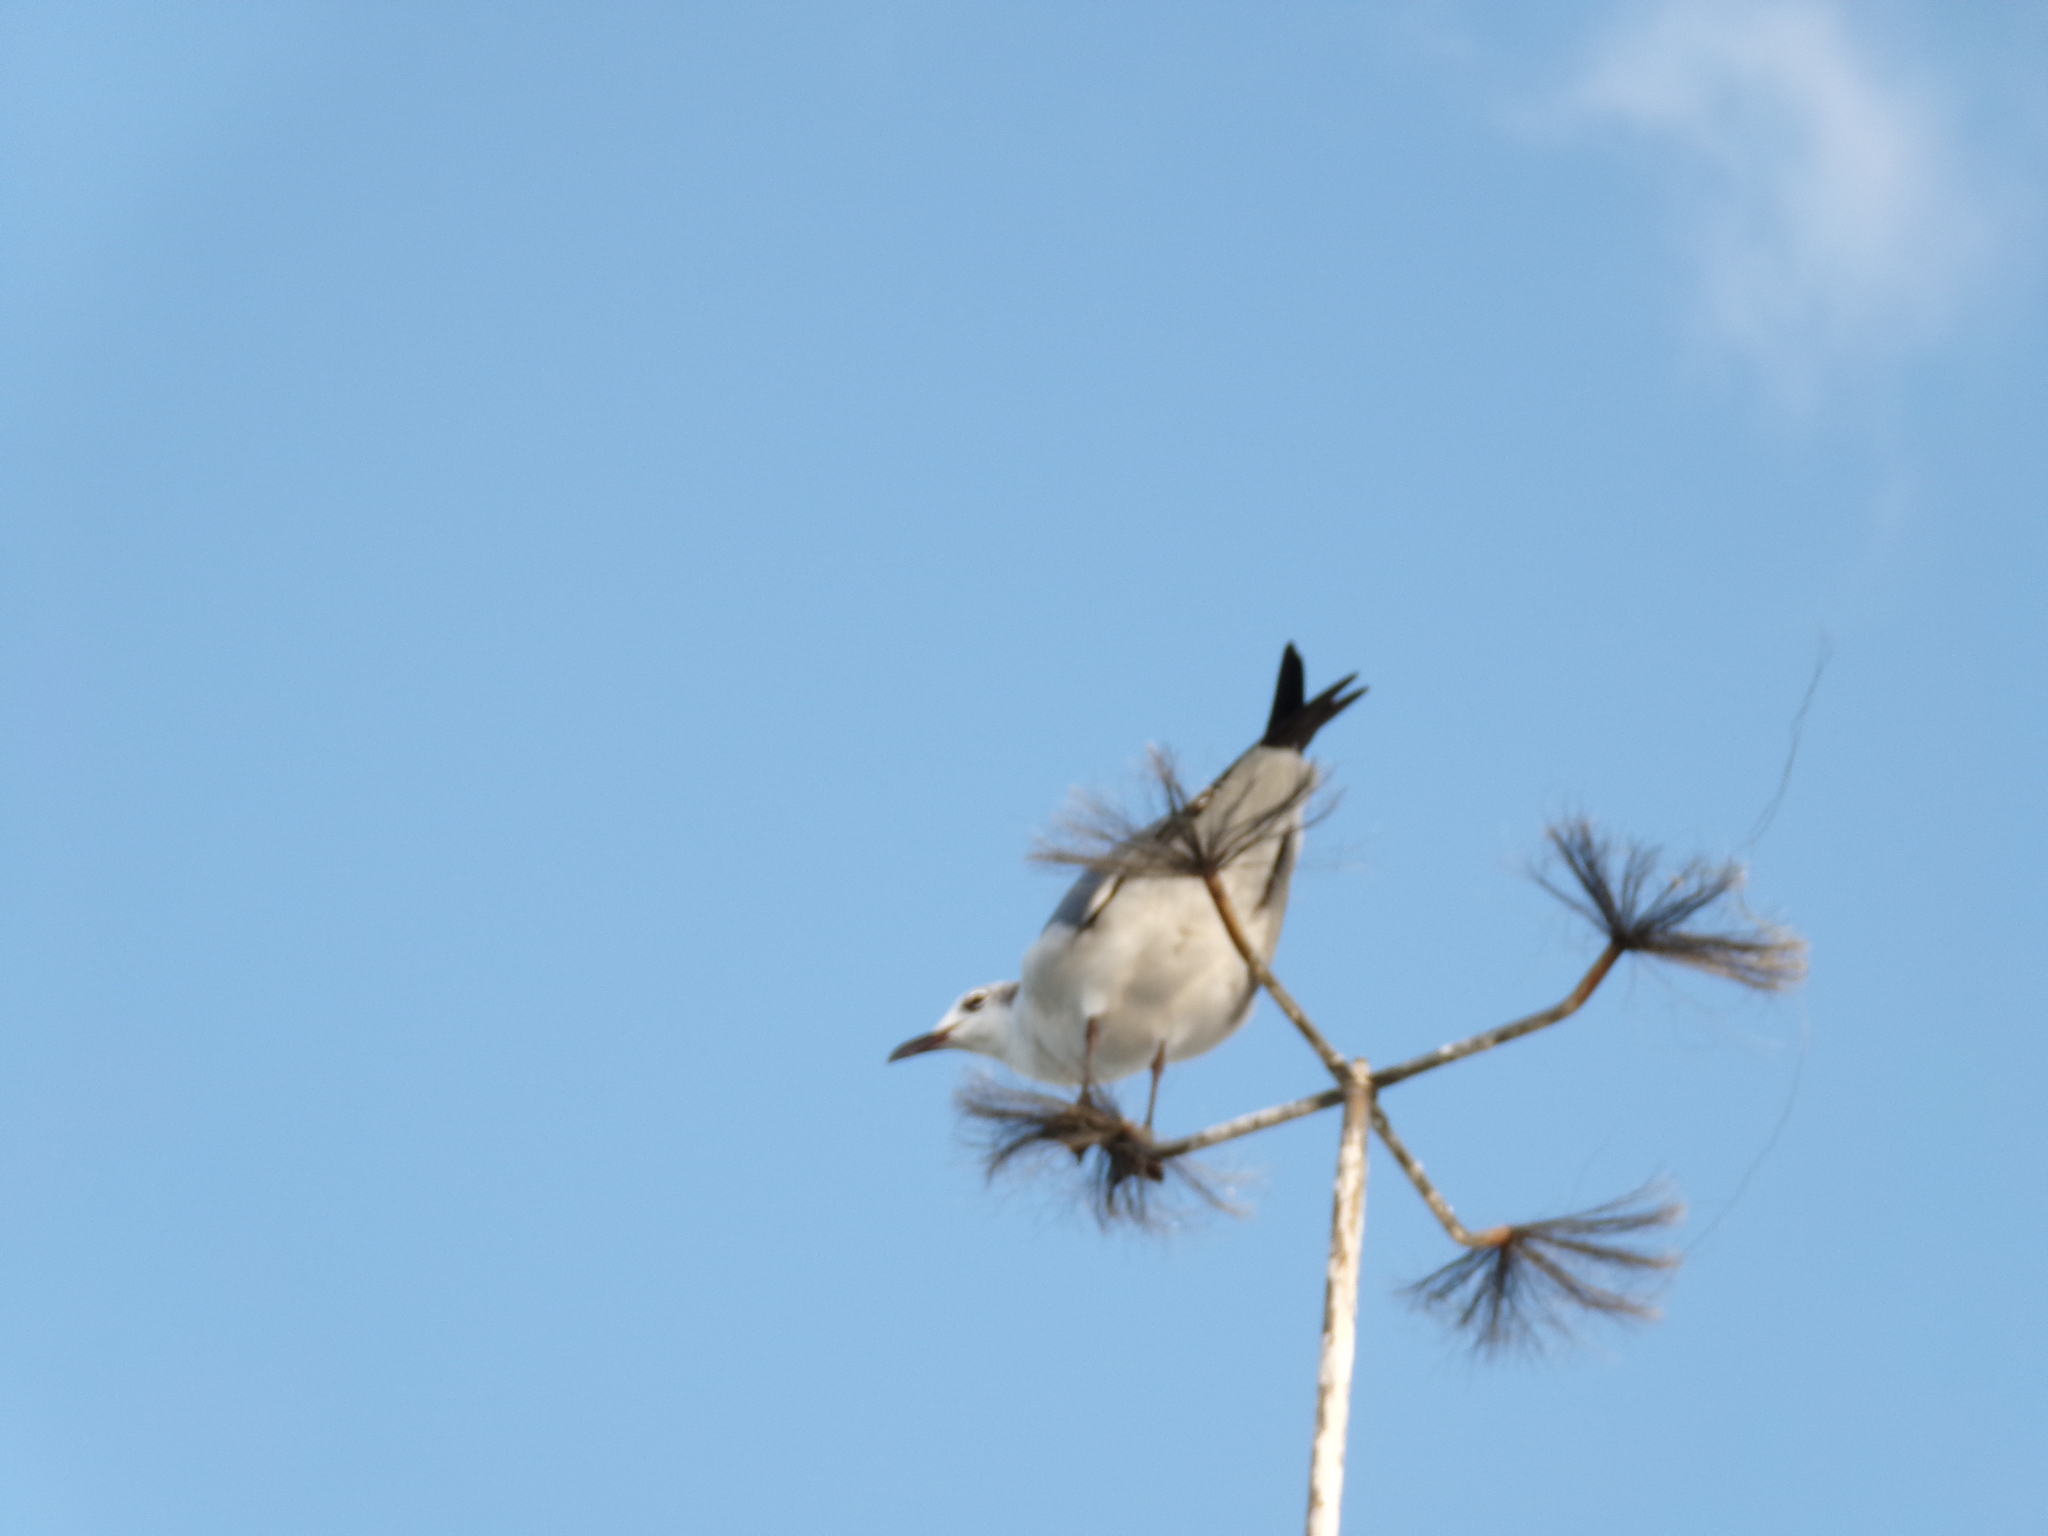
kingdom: Animalia
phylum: Chordata
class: Aves
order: Charadriiformes
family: Laridae
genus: Leucophaeus
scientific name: Leucophaeus atricilla
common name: Laughing gull
